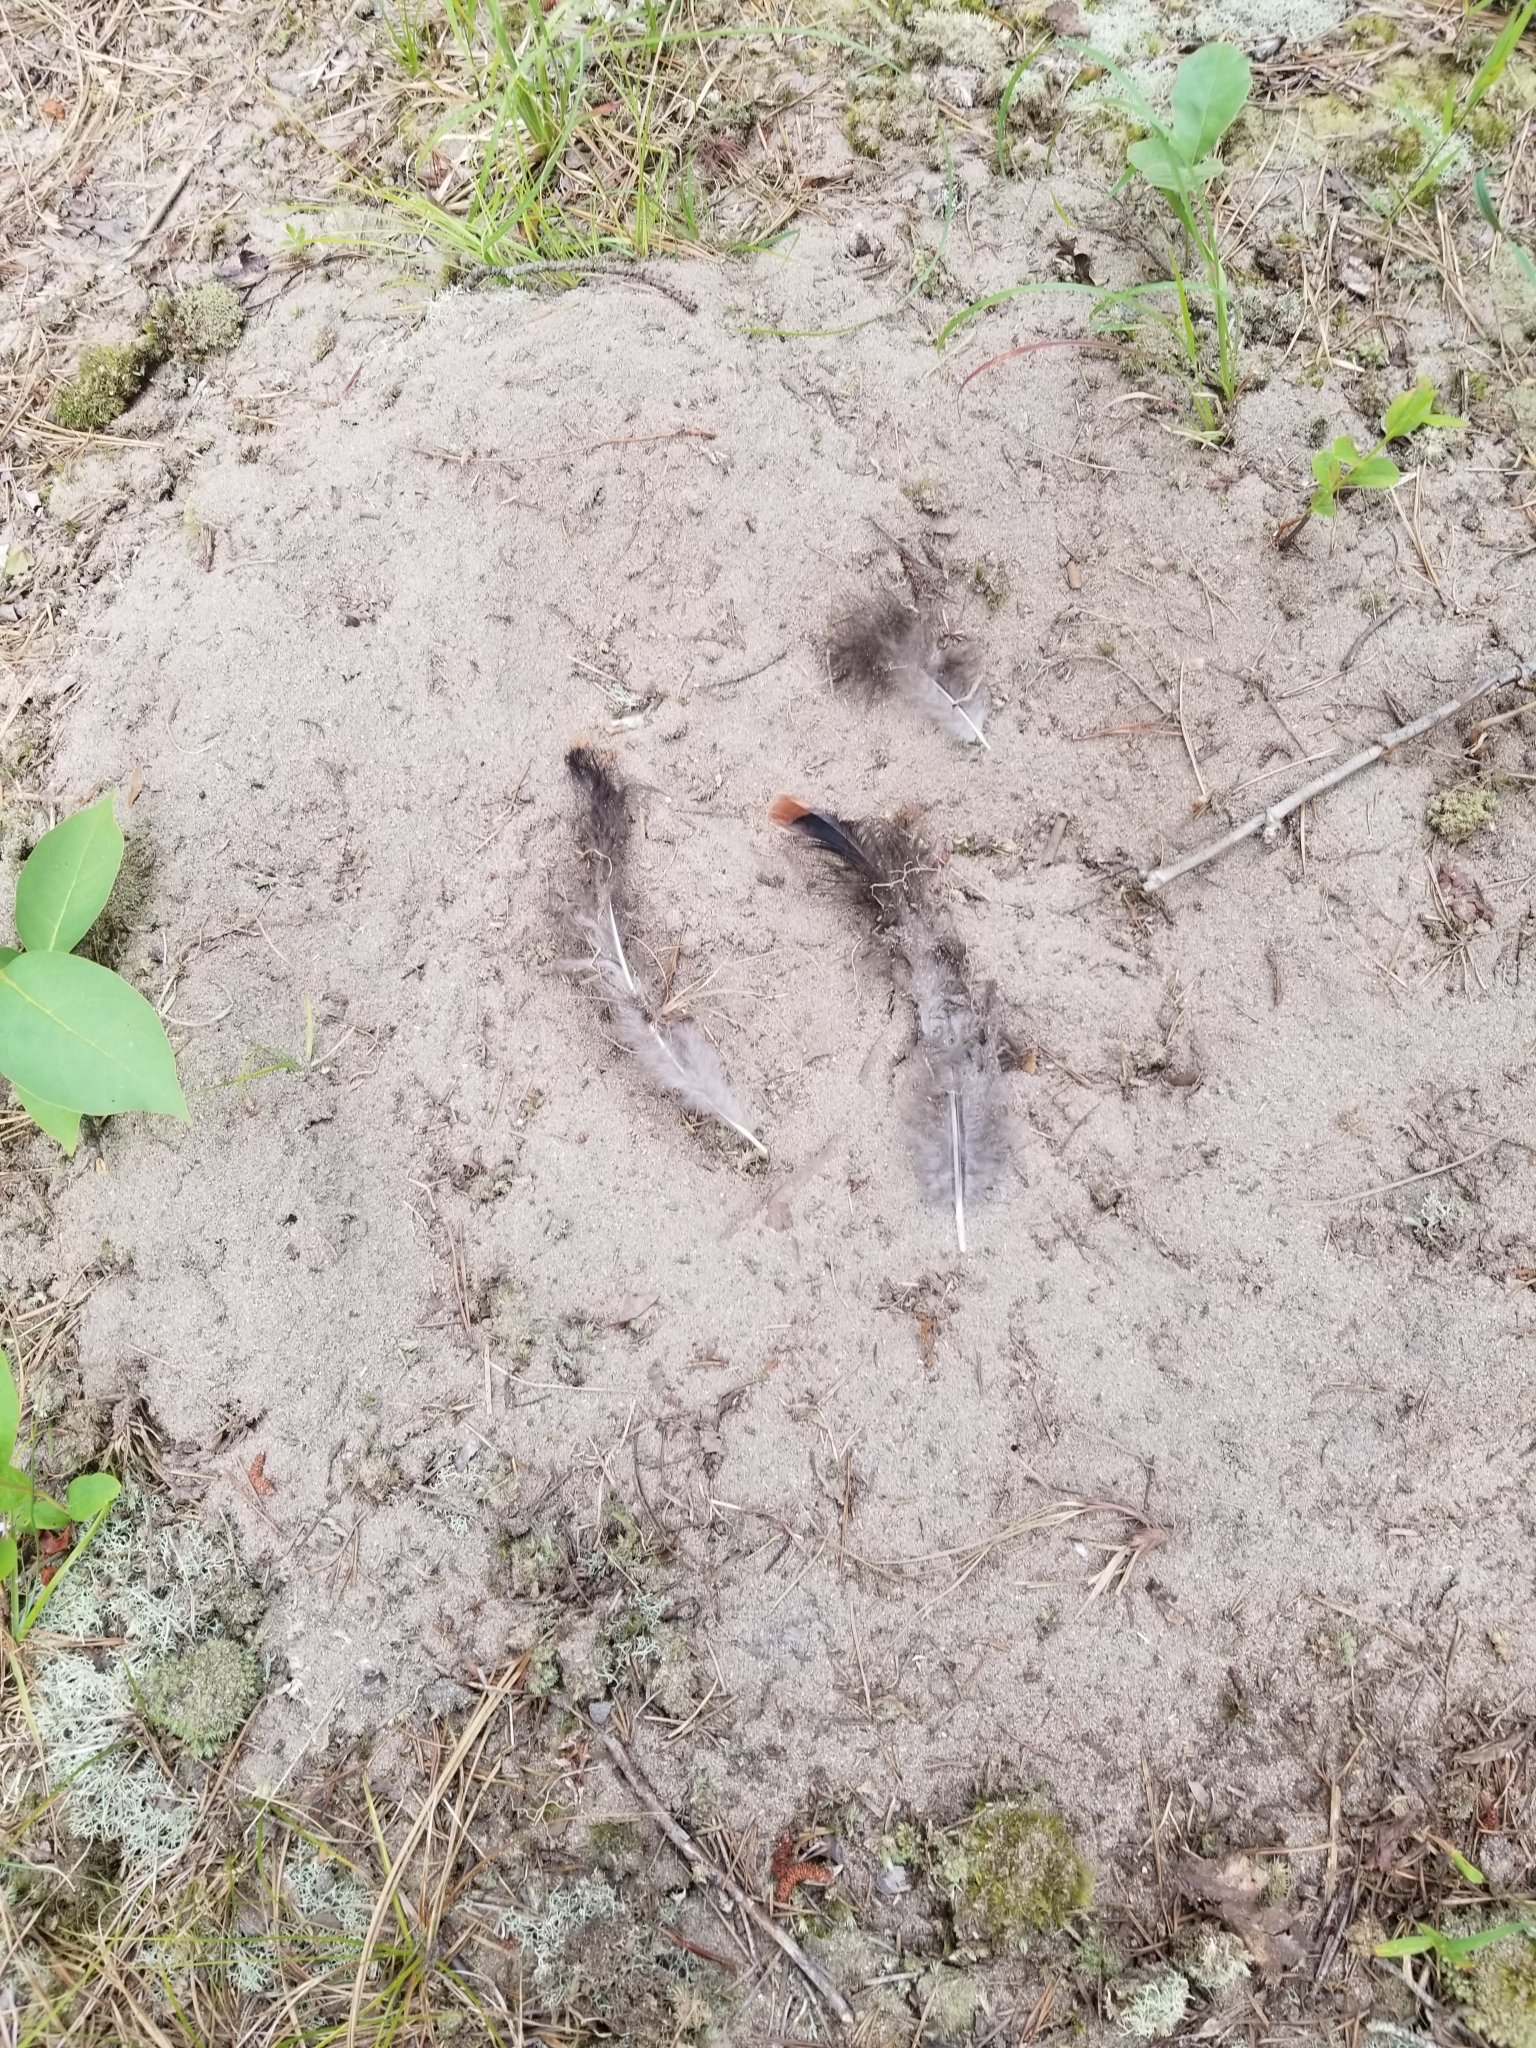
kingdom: Animalia
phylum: Chordata
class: Aves
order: Galliformes
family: Phasianidae
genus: Meleagris
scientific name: Meleagris gallopavo
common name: Wild turkey
